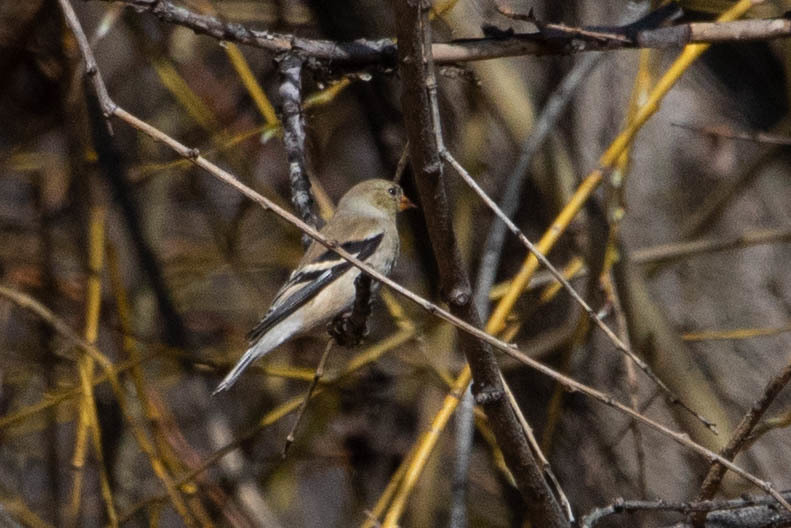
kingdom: Animalia
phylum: Chordata
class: Aves
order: Passeriformes
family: Fringillidae
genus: Spinus
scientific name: Spinus tristis
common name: American goldfinch
